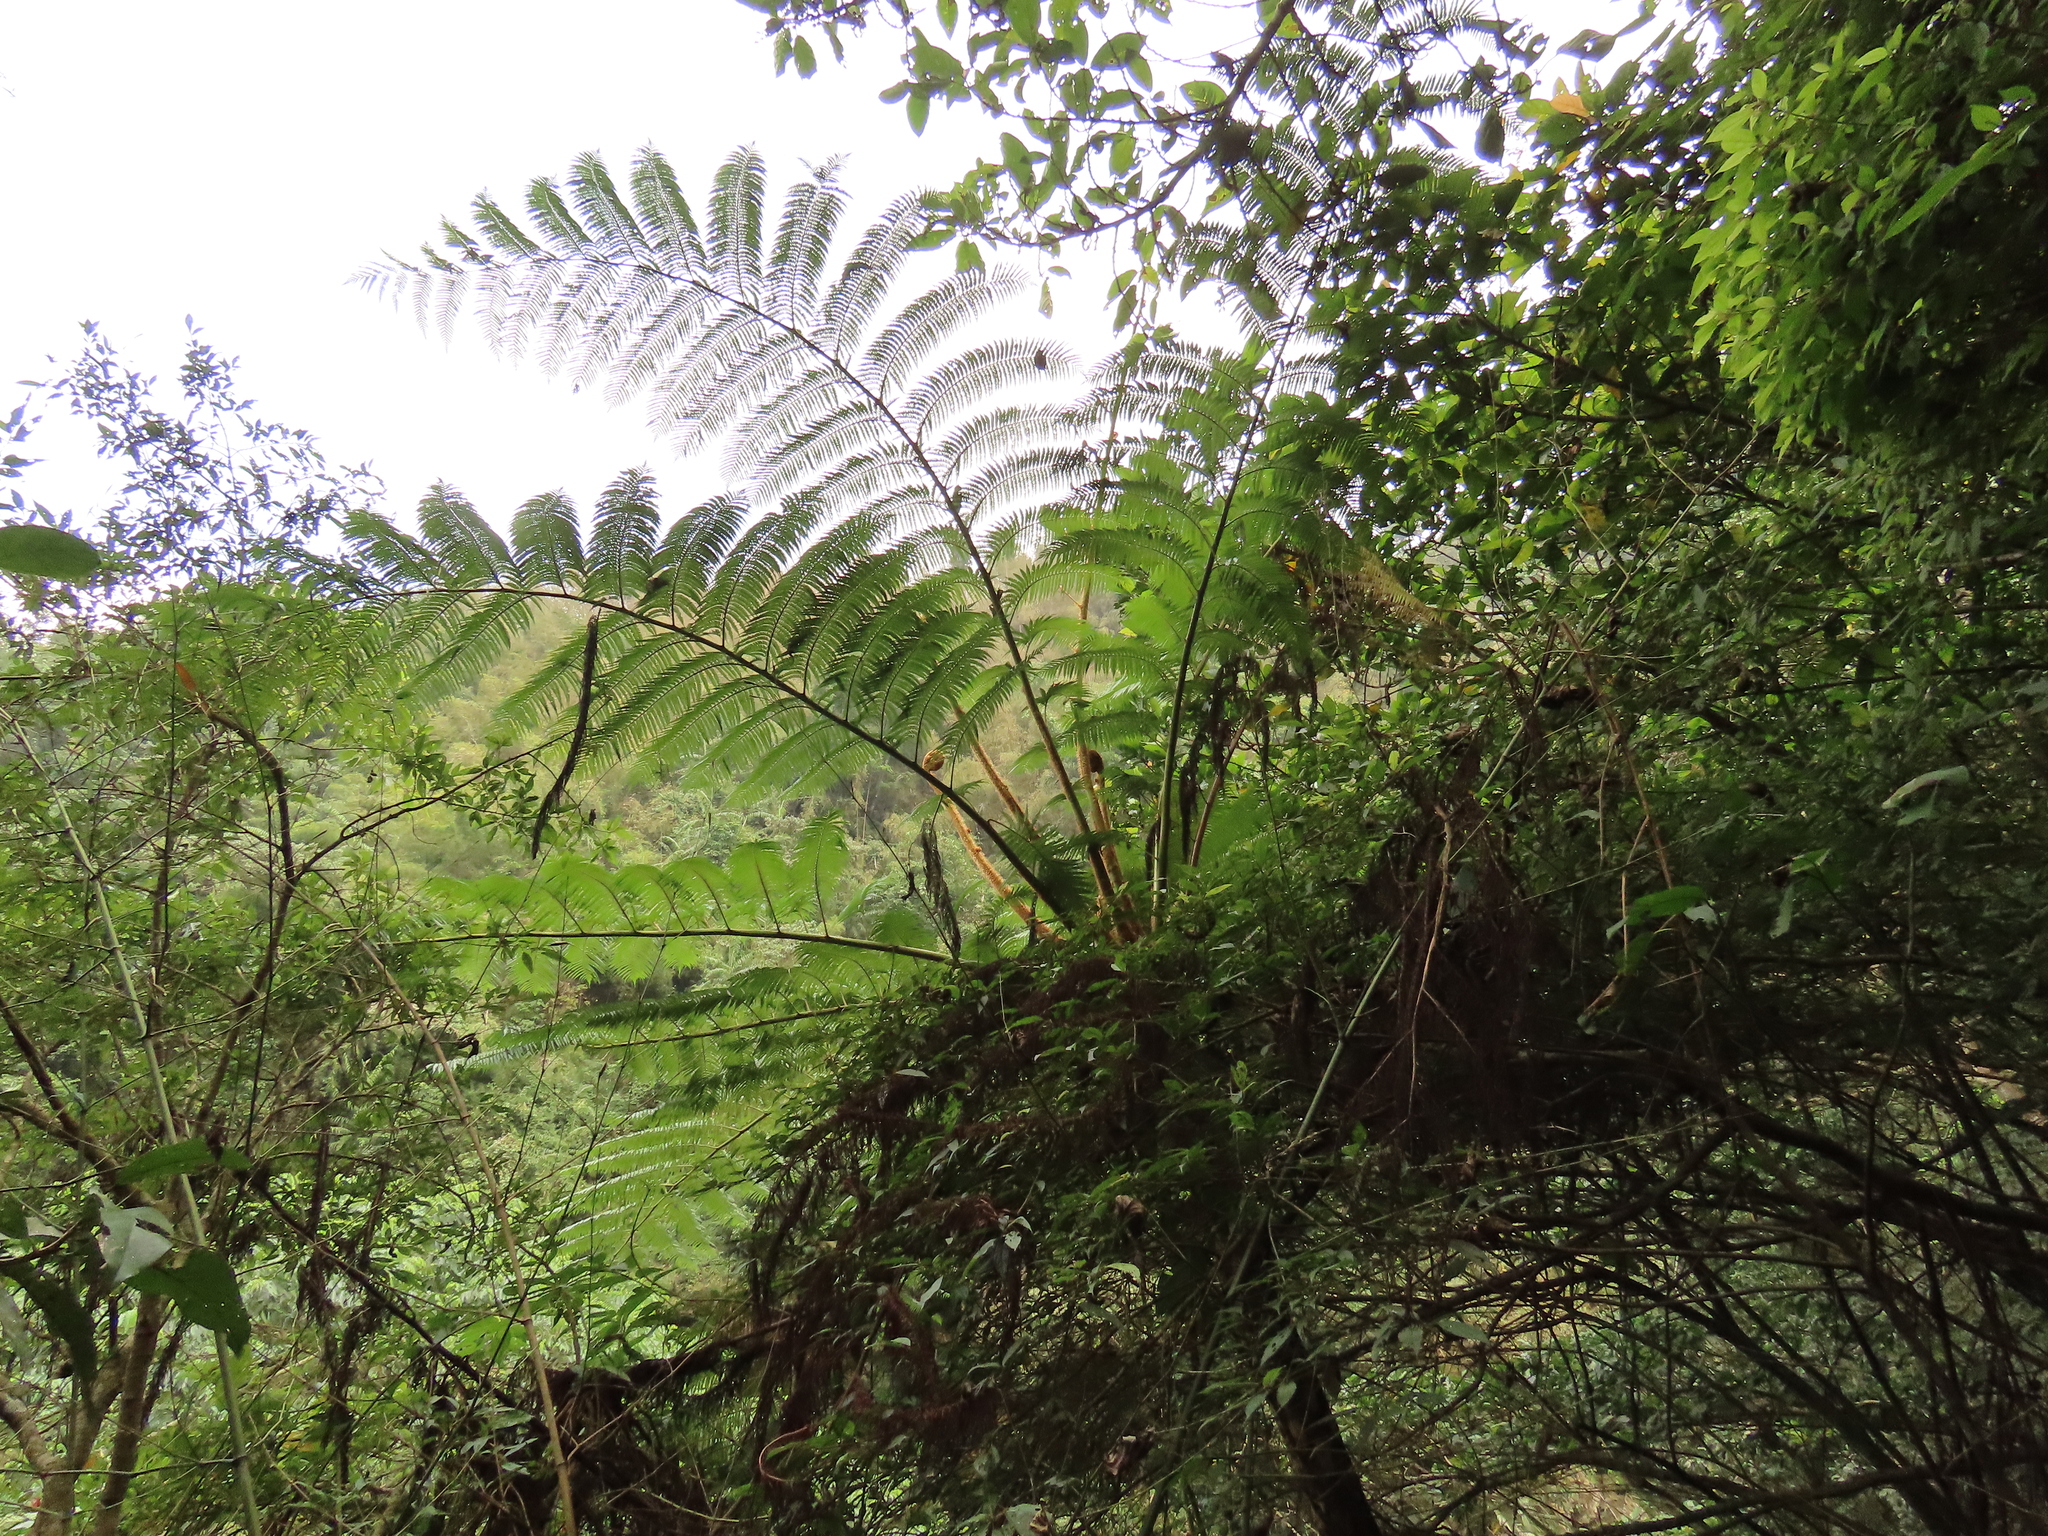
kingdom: Plantae
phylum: Tracheophyta
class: Polypodiopsida
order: Cyatheales
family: Cyatheaceae
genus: Alsophila
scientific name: Alsophila lepifera
